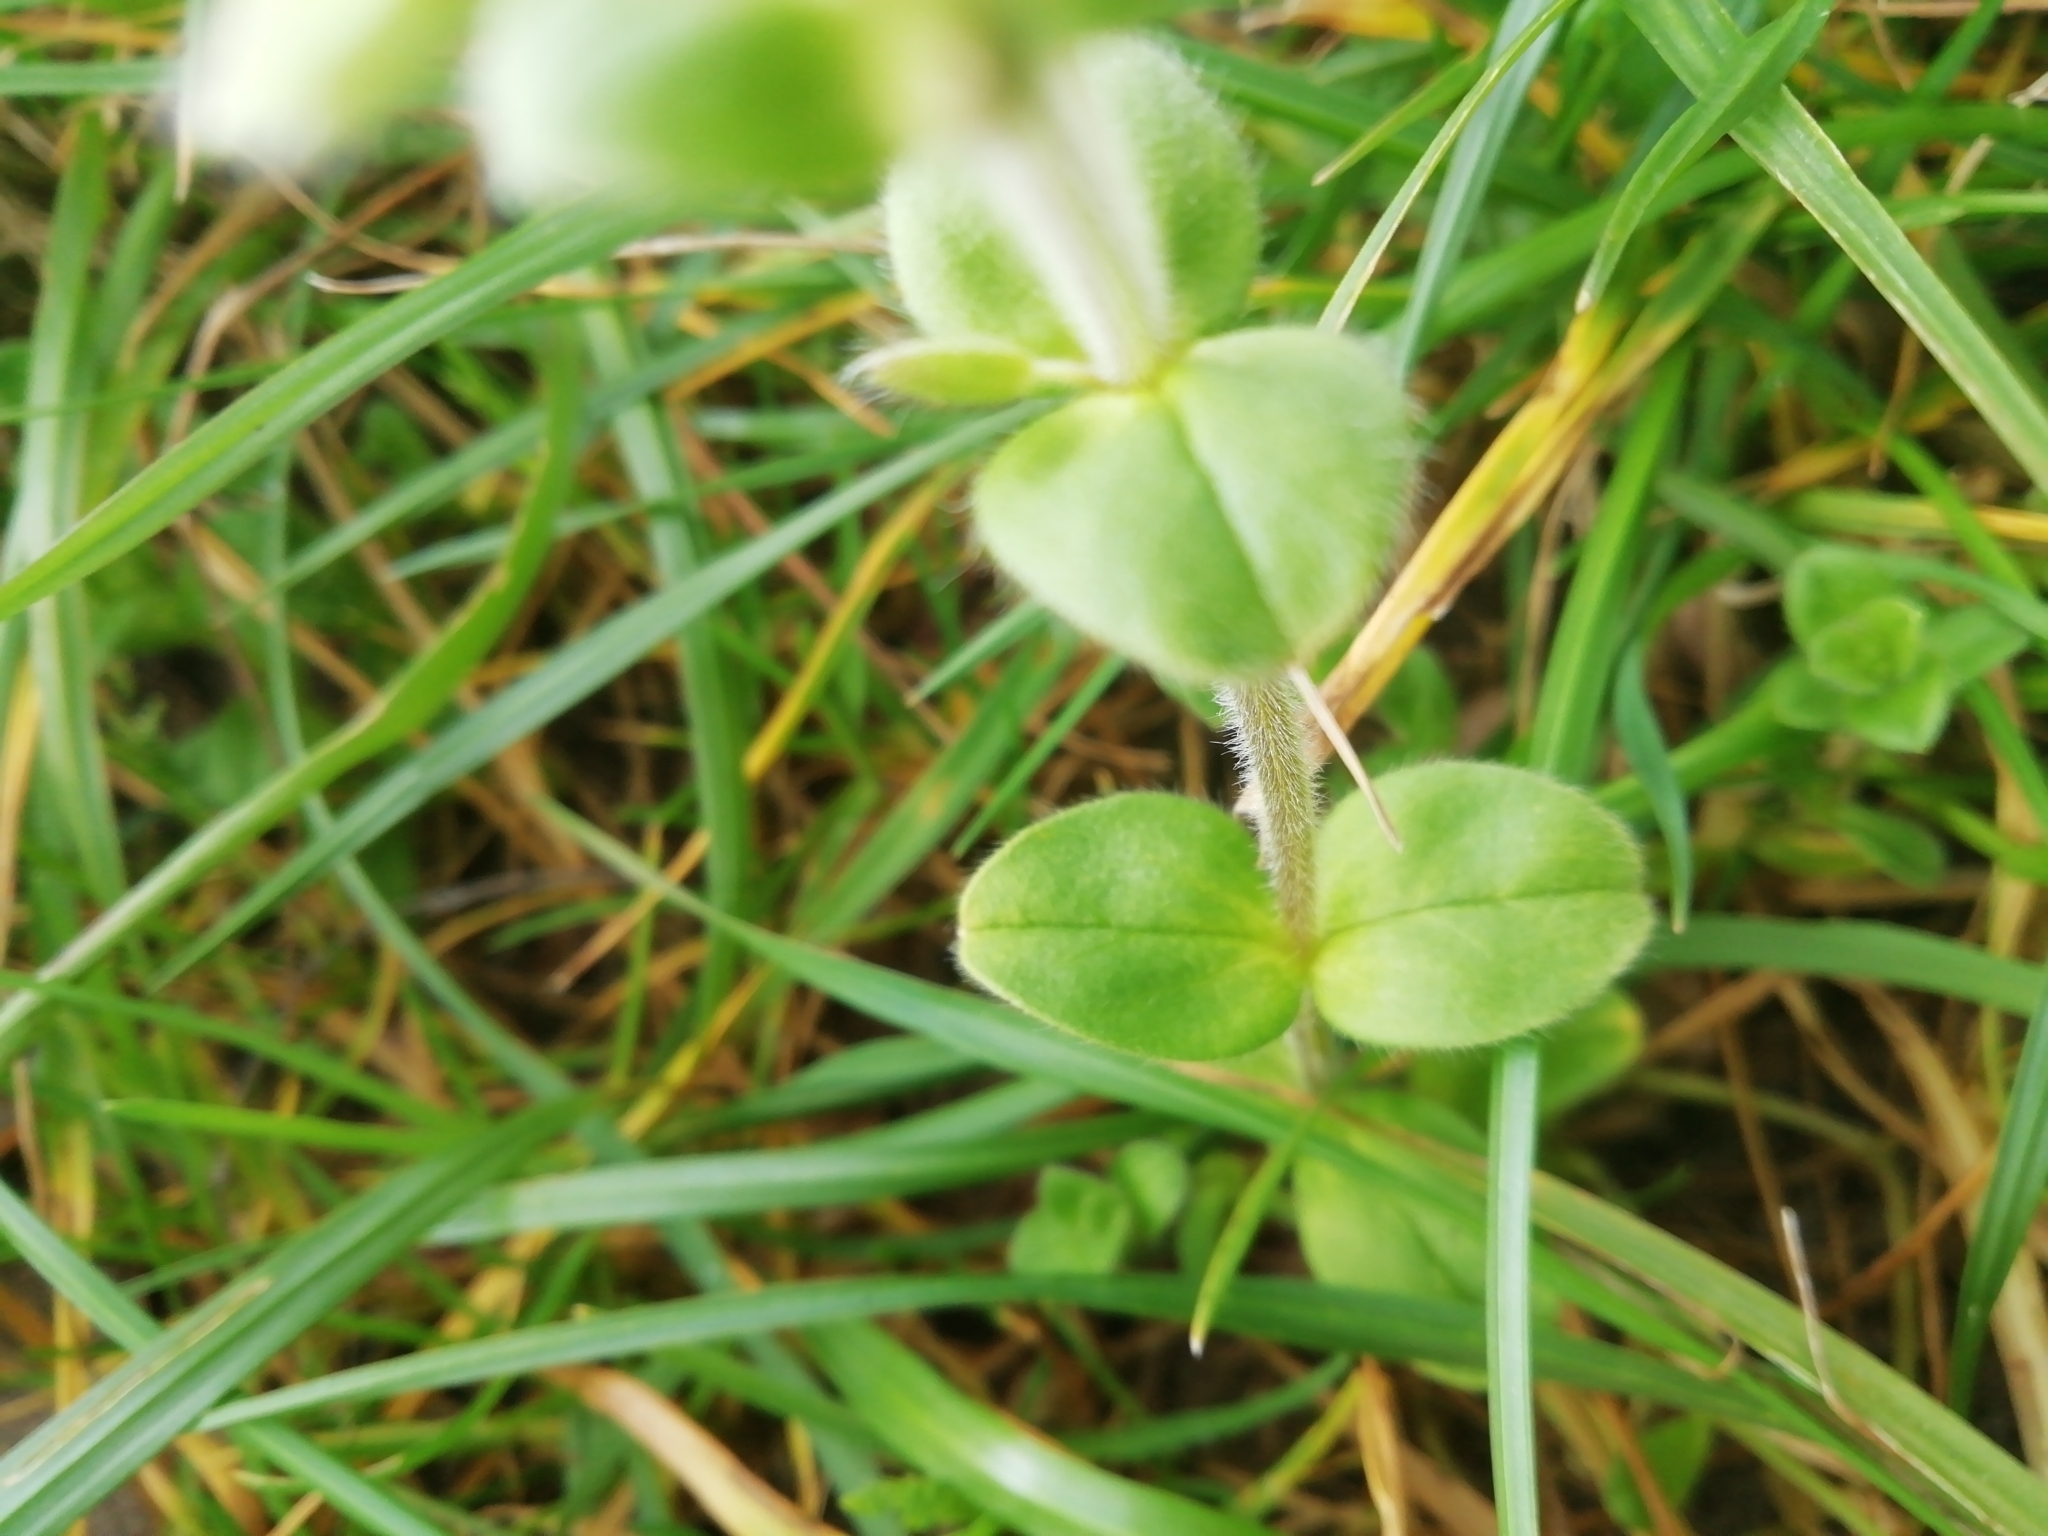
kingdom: Plantae
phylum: Tracheophyta
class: Magnoliopsida
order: Caryophyllales
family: Caryophyllaceae
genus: Cerastium
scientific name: Cerastium glomeratum
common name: Sticky chickweed
